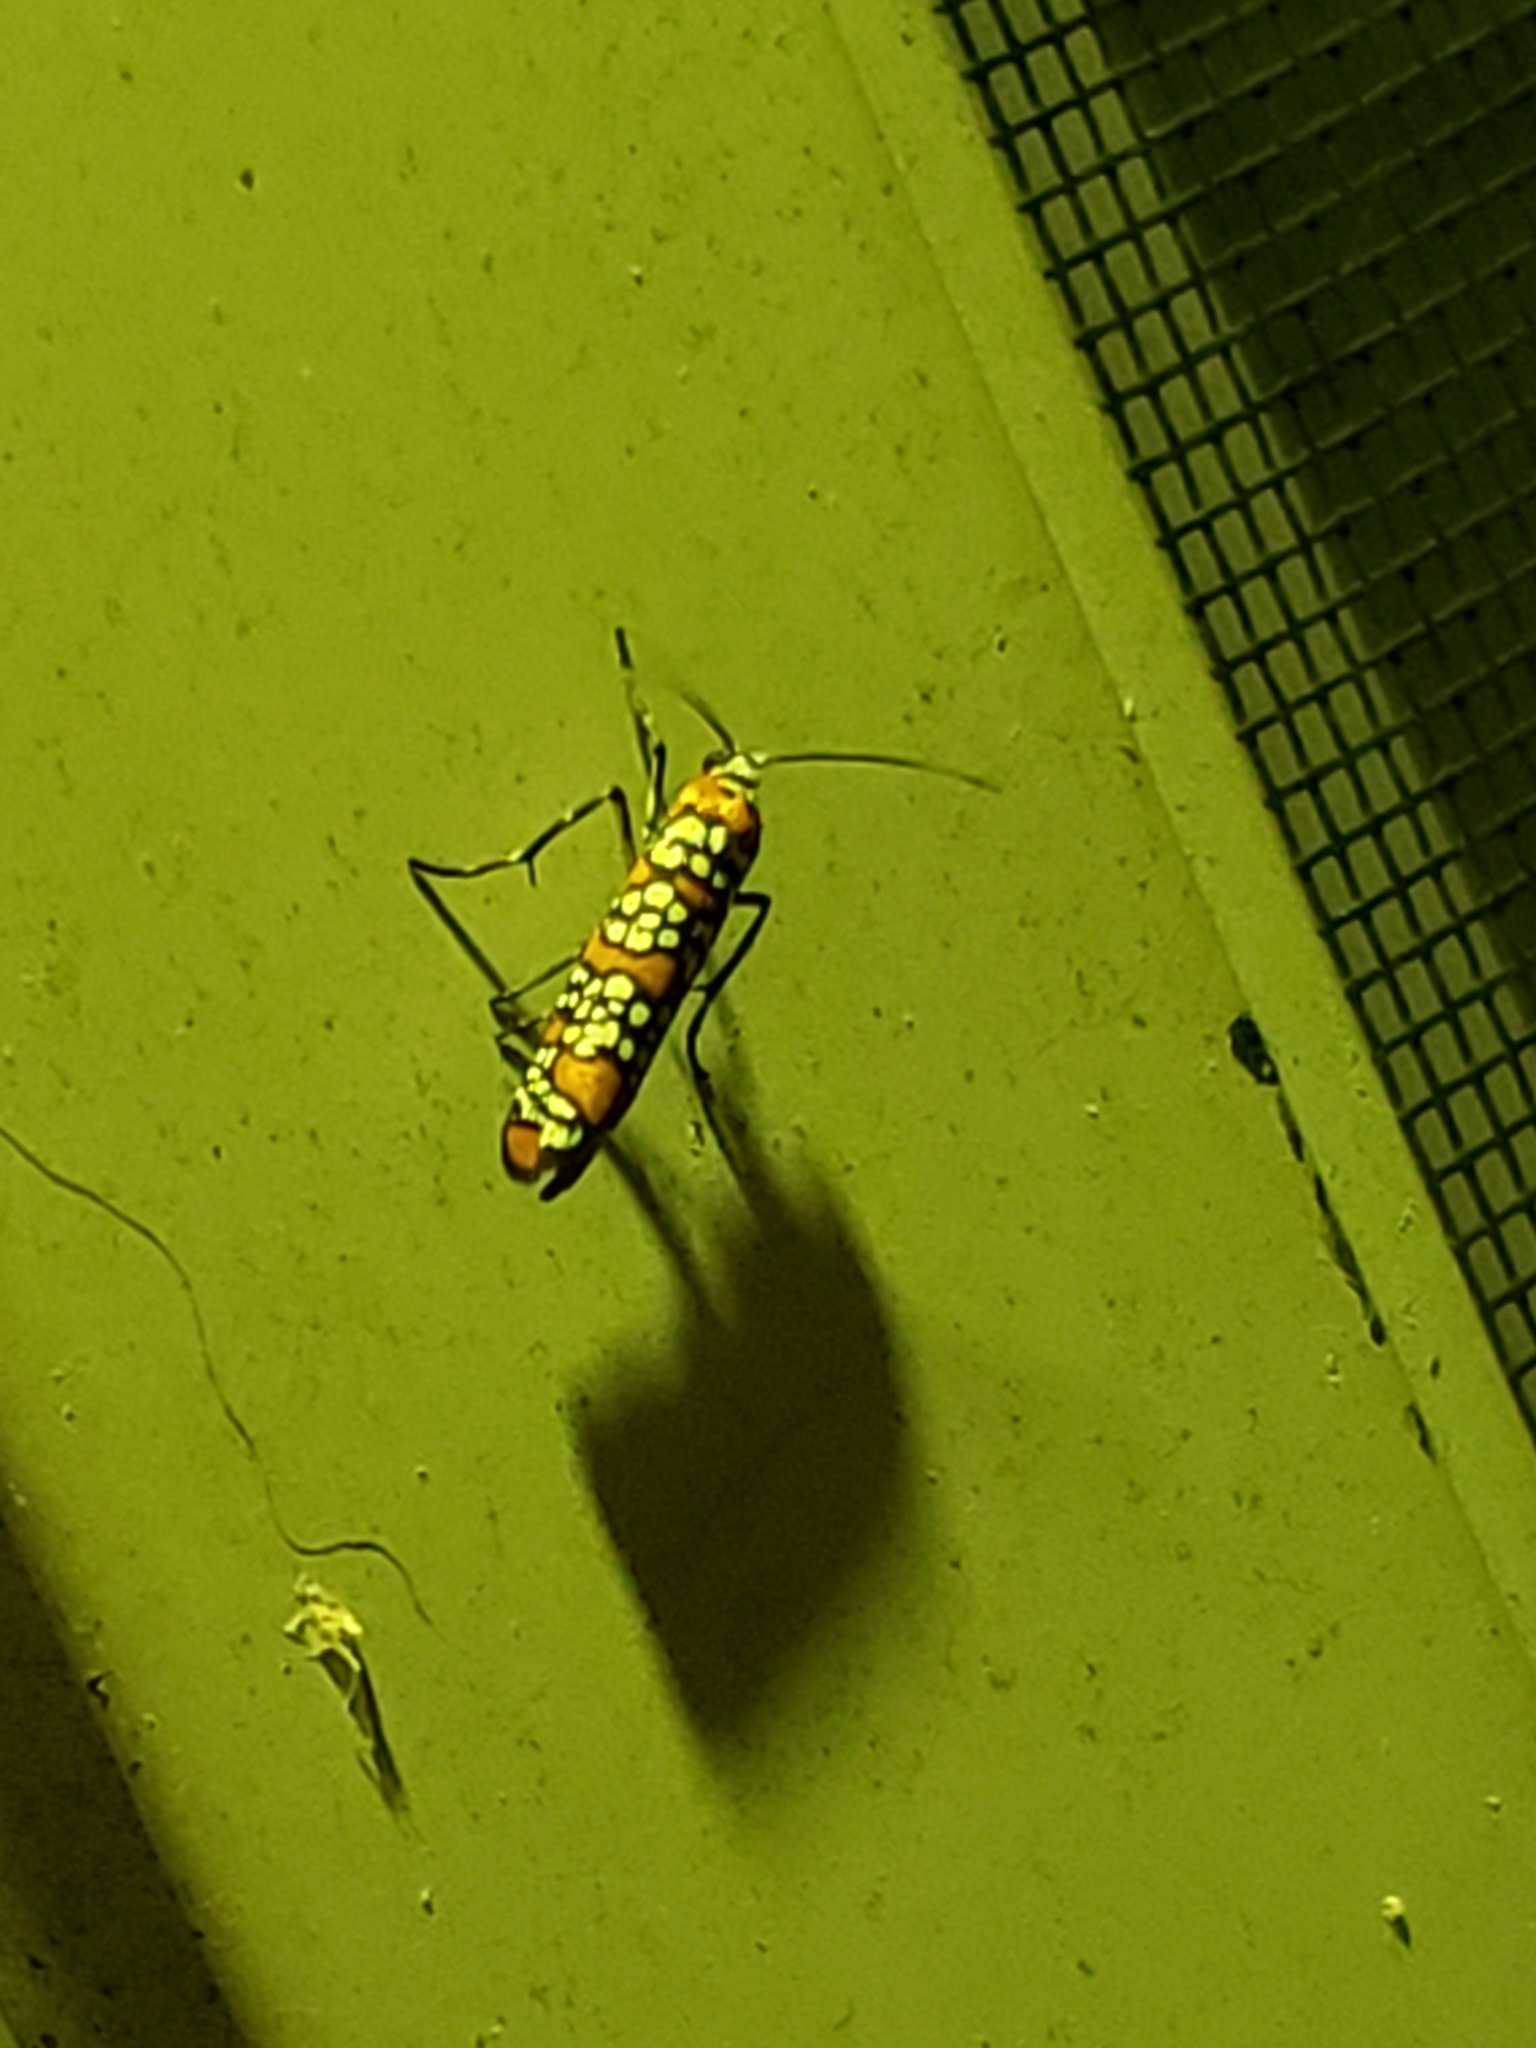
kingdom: Animalia
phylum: Arthropoda
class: Insecta
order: Lepidoptera
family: Attevidae
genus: Atteva
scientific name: Atteva punctella
